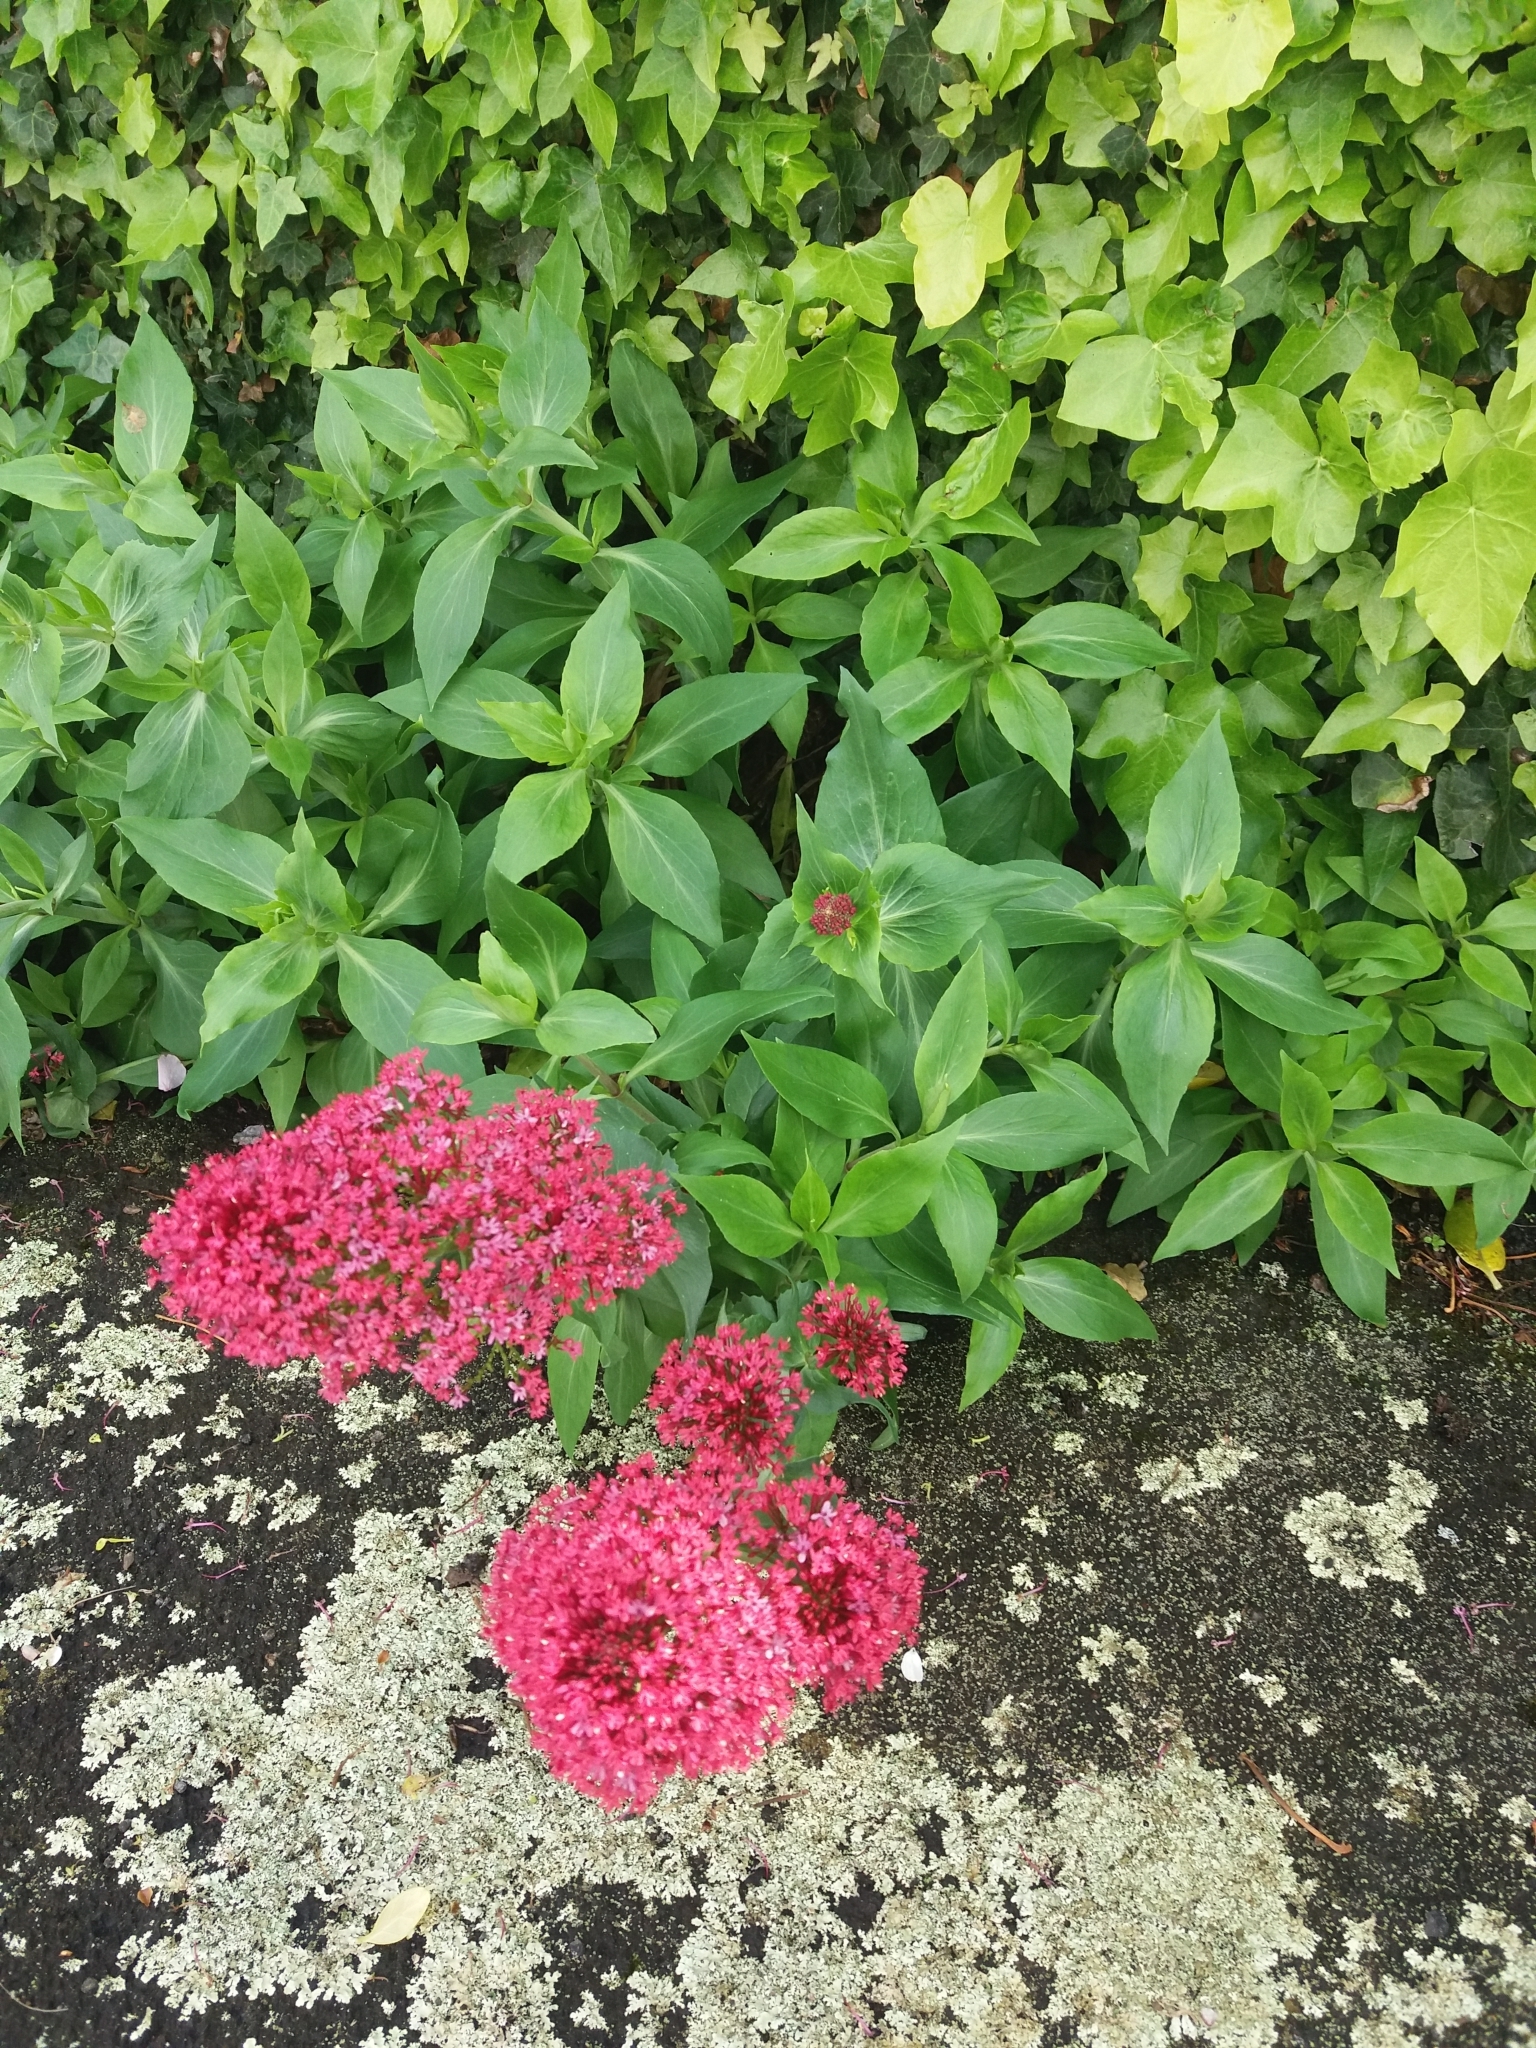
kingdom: Plantae
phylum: Tracheophyta
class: Magnoliopsida
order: Dipsacales
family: Caprifoliaceae
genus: Centranthus
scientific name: Centranthus ruber
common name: Red valerian
